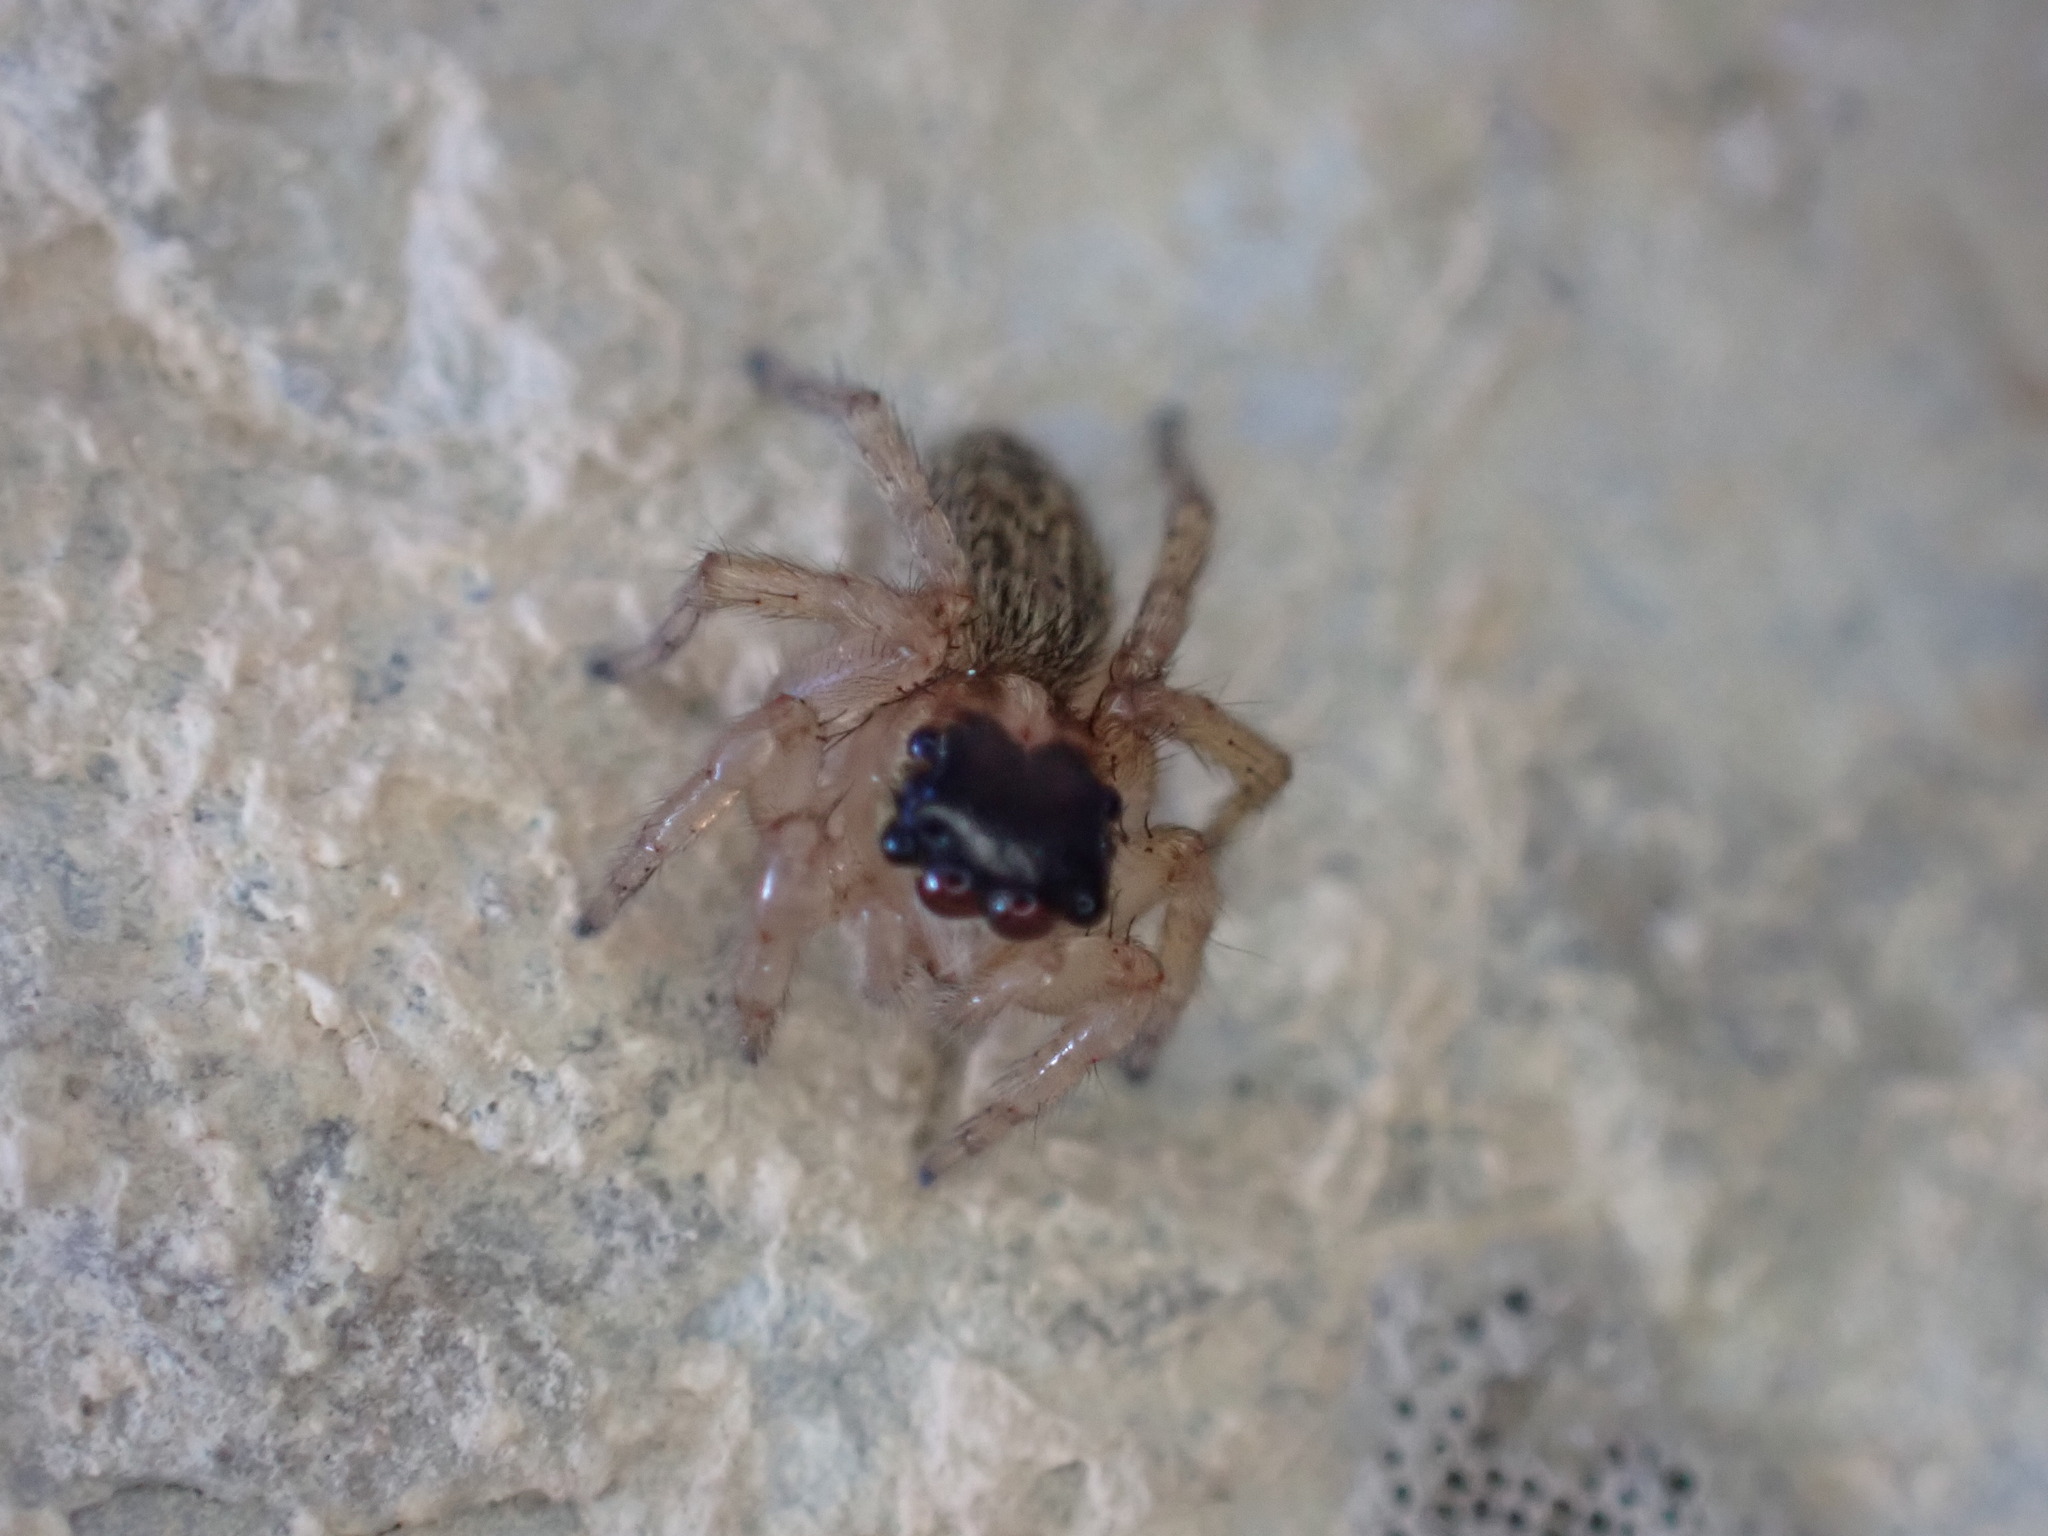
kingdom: Animalia
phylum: Arthropoda
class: Arachnida
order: Araneae
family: Salticidae
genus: Saitis
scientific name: Saitis barbipes
